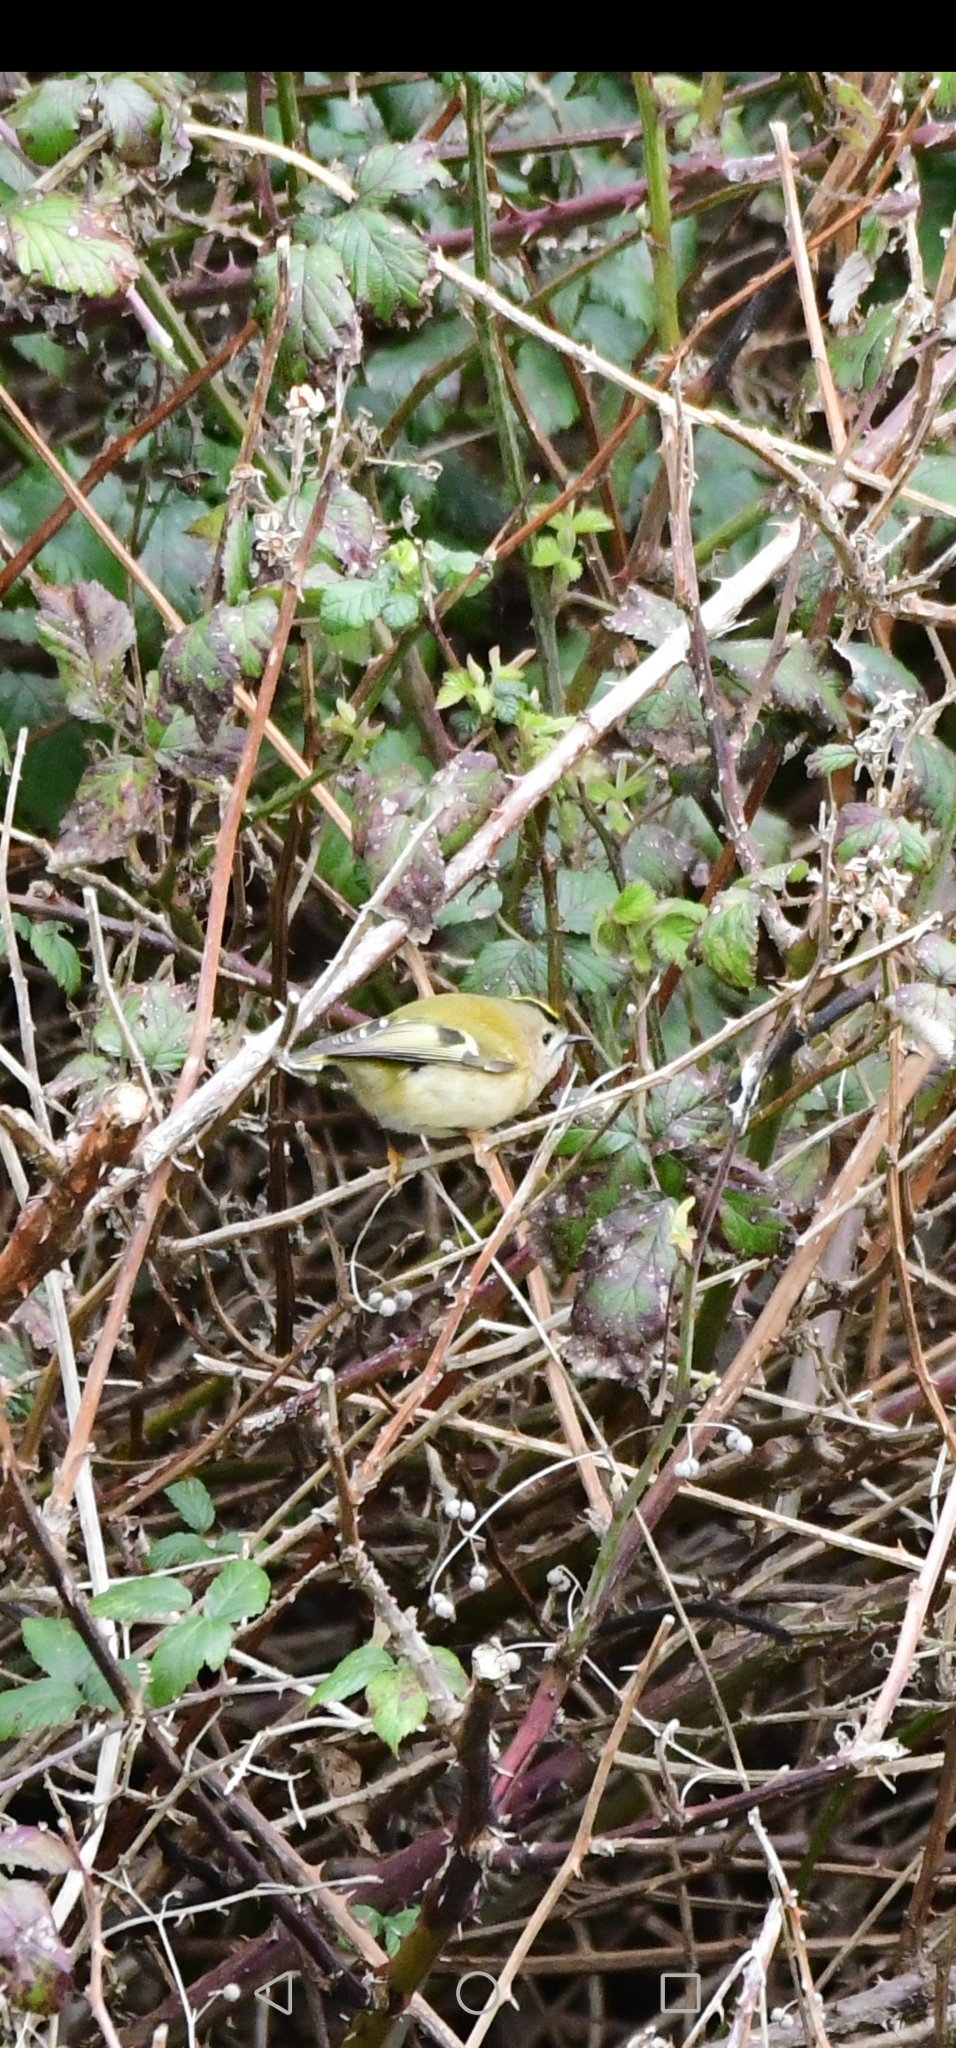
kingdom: Animalia
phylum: Chordata
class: Aves
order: Passeriformes
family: Regulidae
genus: Regulus
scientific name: Regulus regulus
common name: Goldcrest
